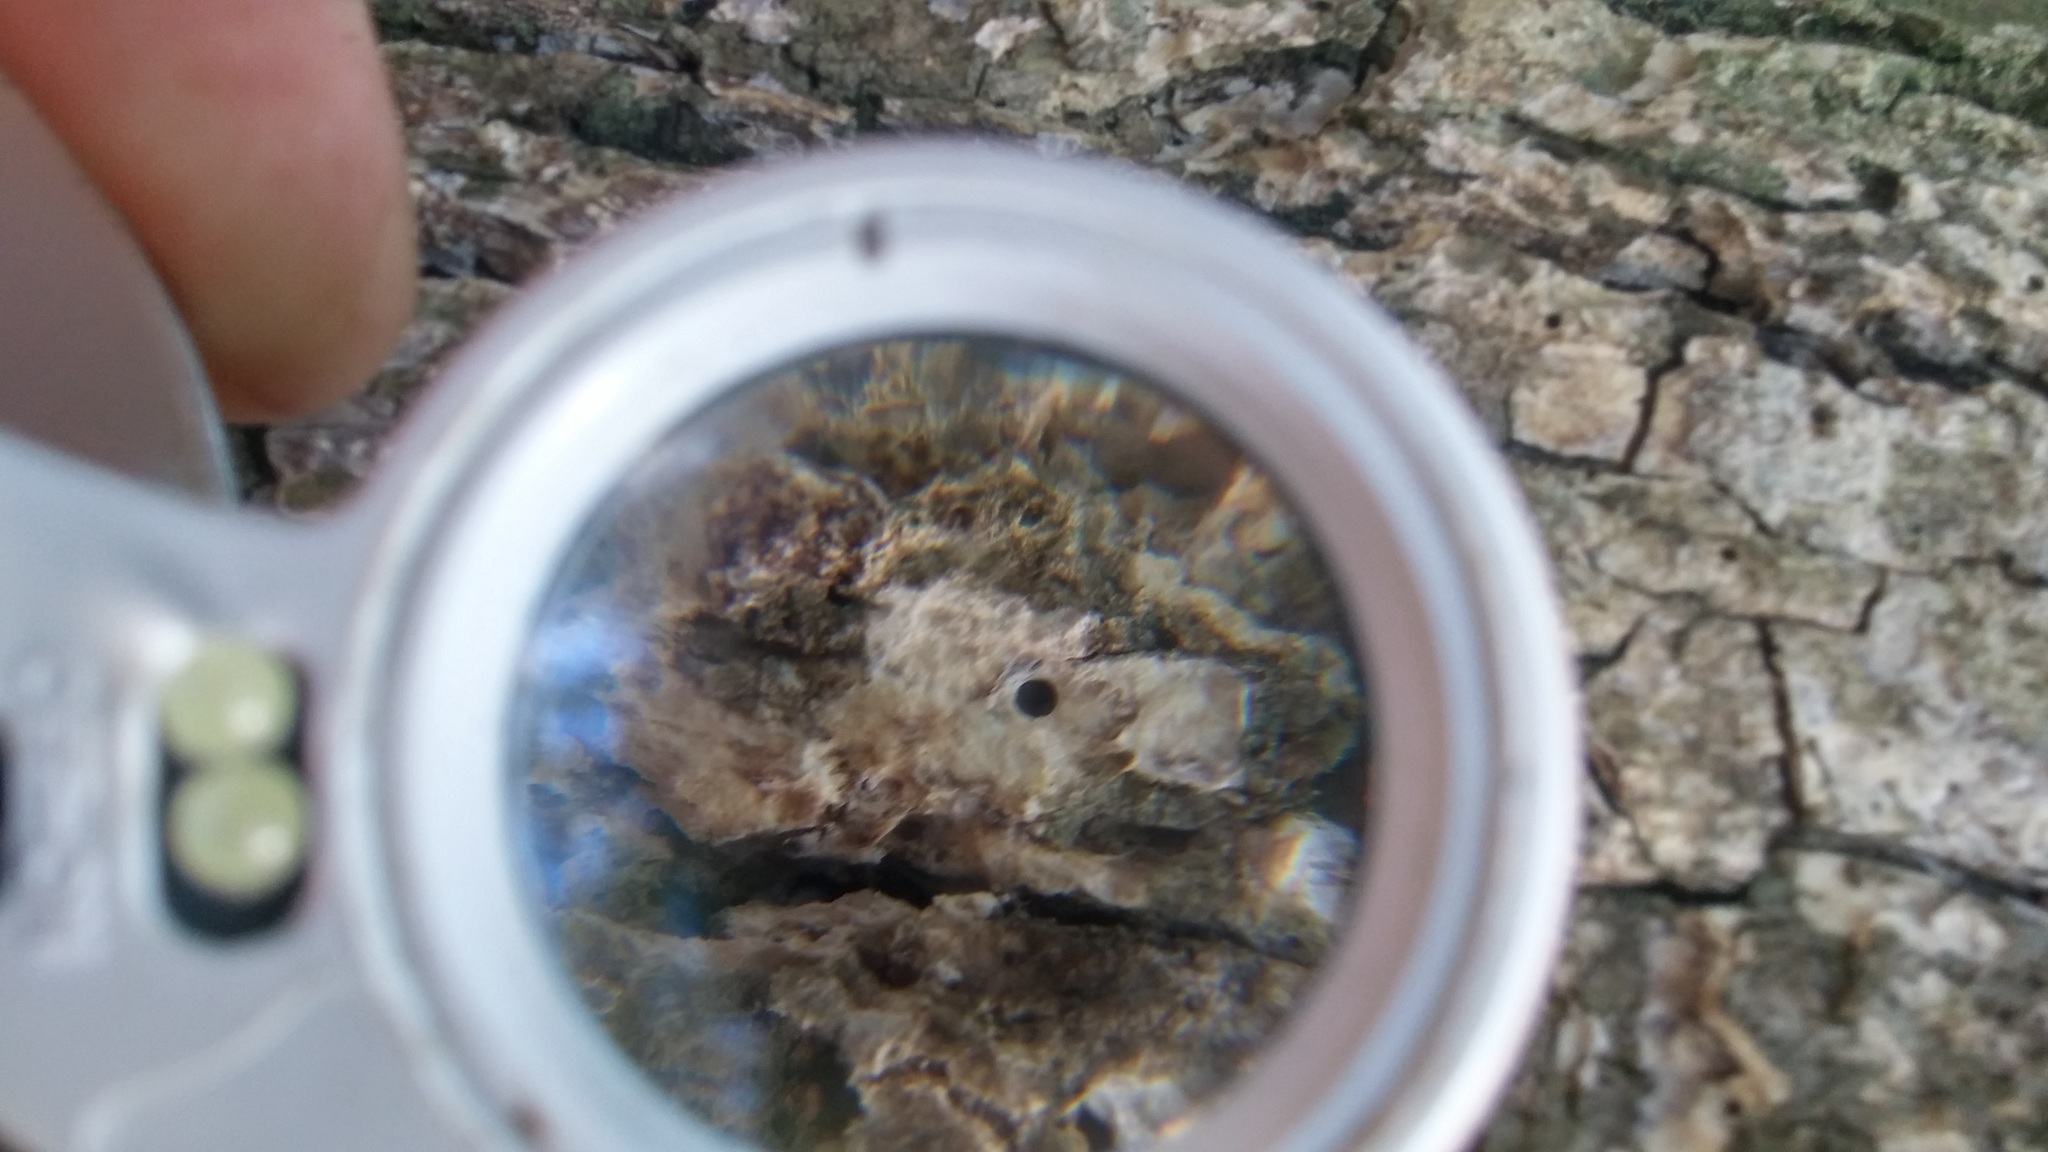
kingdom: Fungi
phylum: Basidiomycota
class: Agaricomycetes
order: Agaricales
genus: Dendrothele
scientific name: Dendrothele candida
